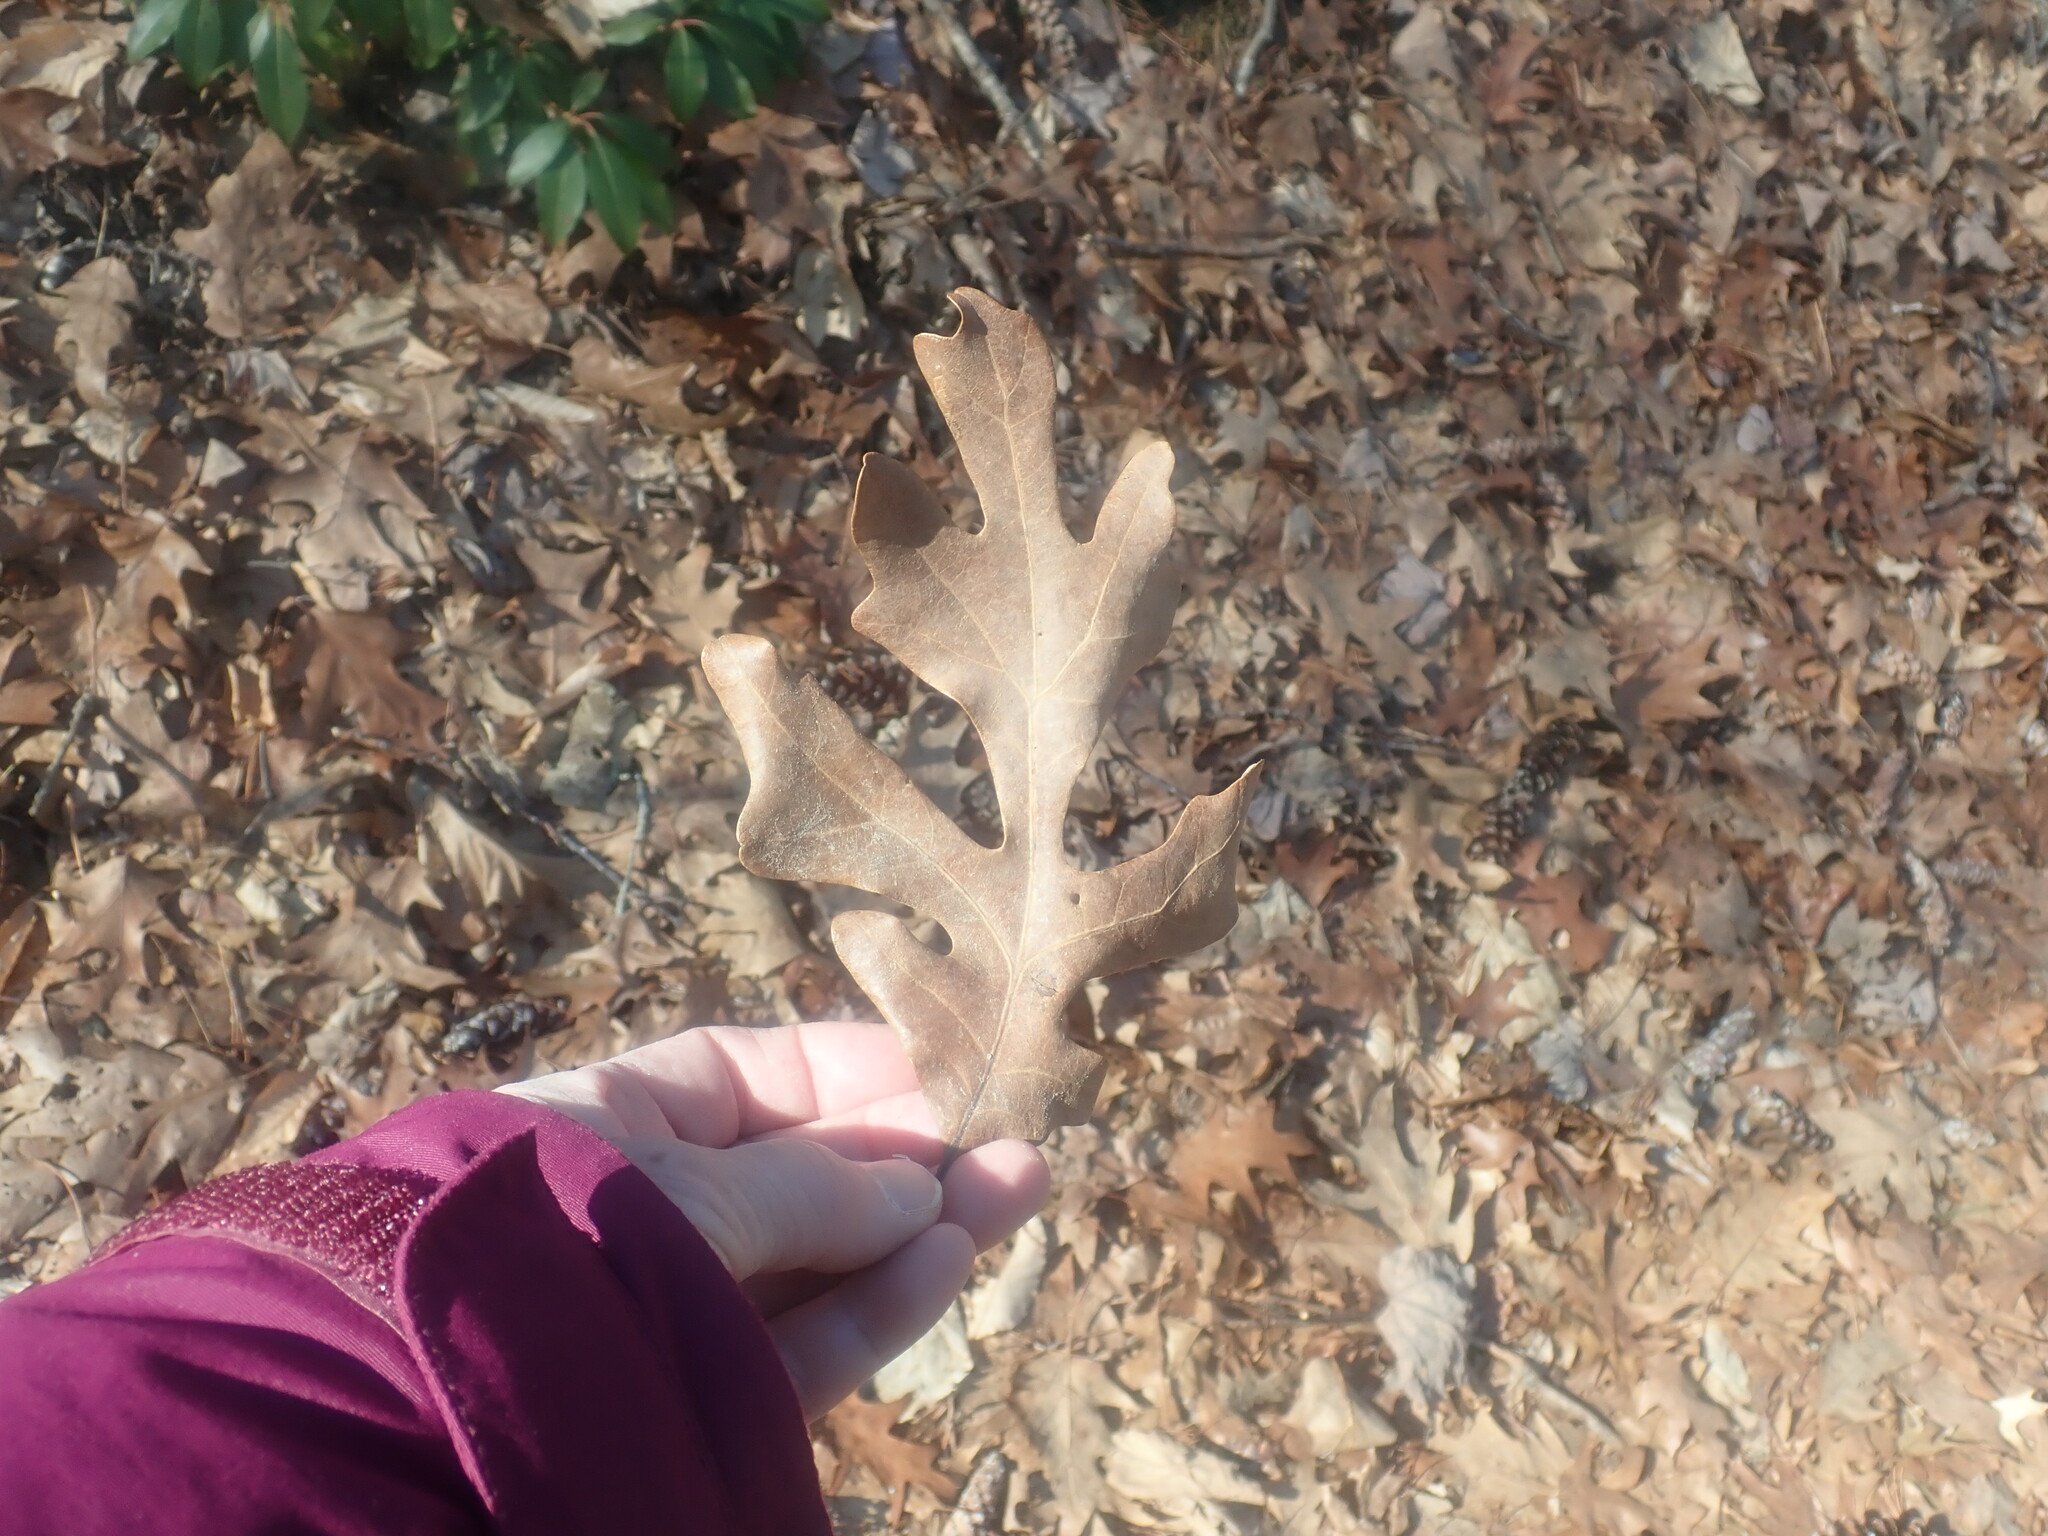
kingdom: Plantae
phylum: Tracheophyta
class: Magnoliopsida
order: Fagales
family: Fagaceae
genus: Quercus
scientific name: Quercus alba
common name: White oak
